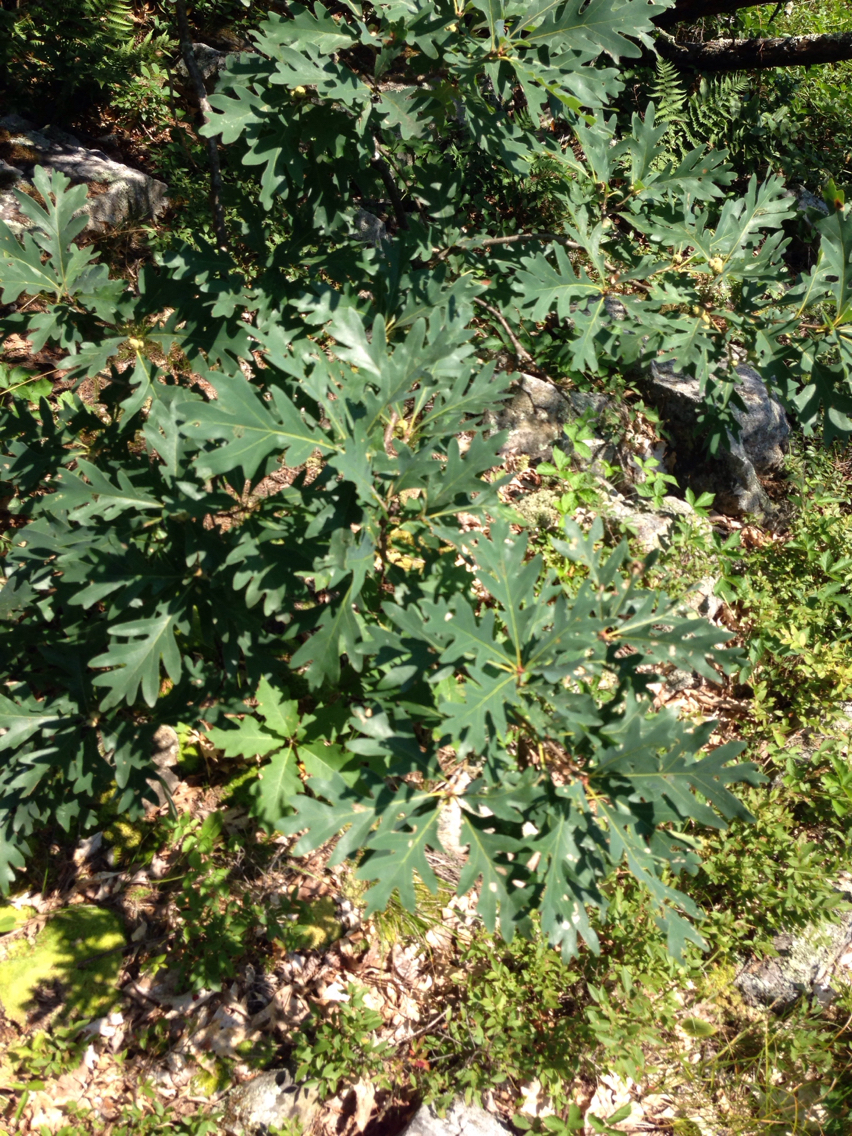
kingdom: Plantae
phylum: Tracheophyta
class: Magnoliopsida
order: Fagales
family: Fagaceae
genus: Quercus
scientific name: Quercus alba
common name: White oak
